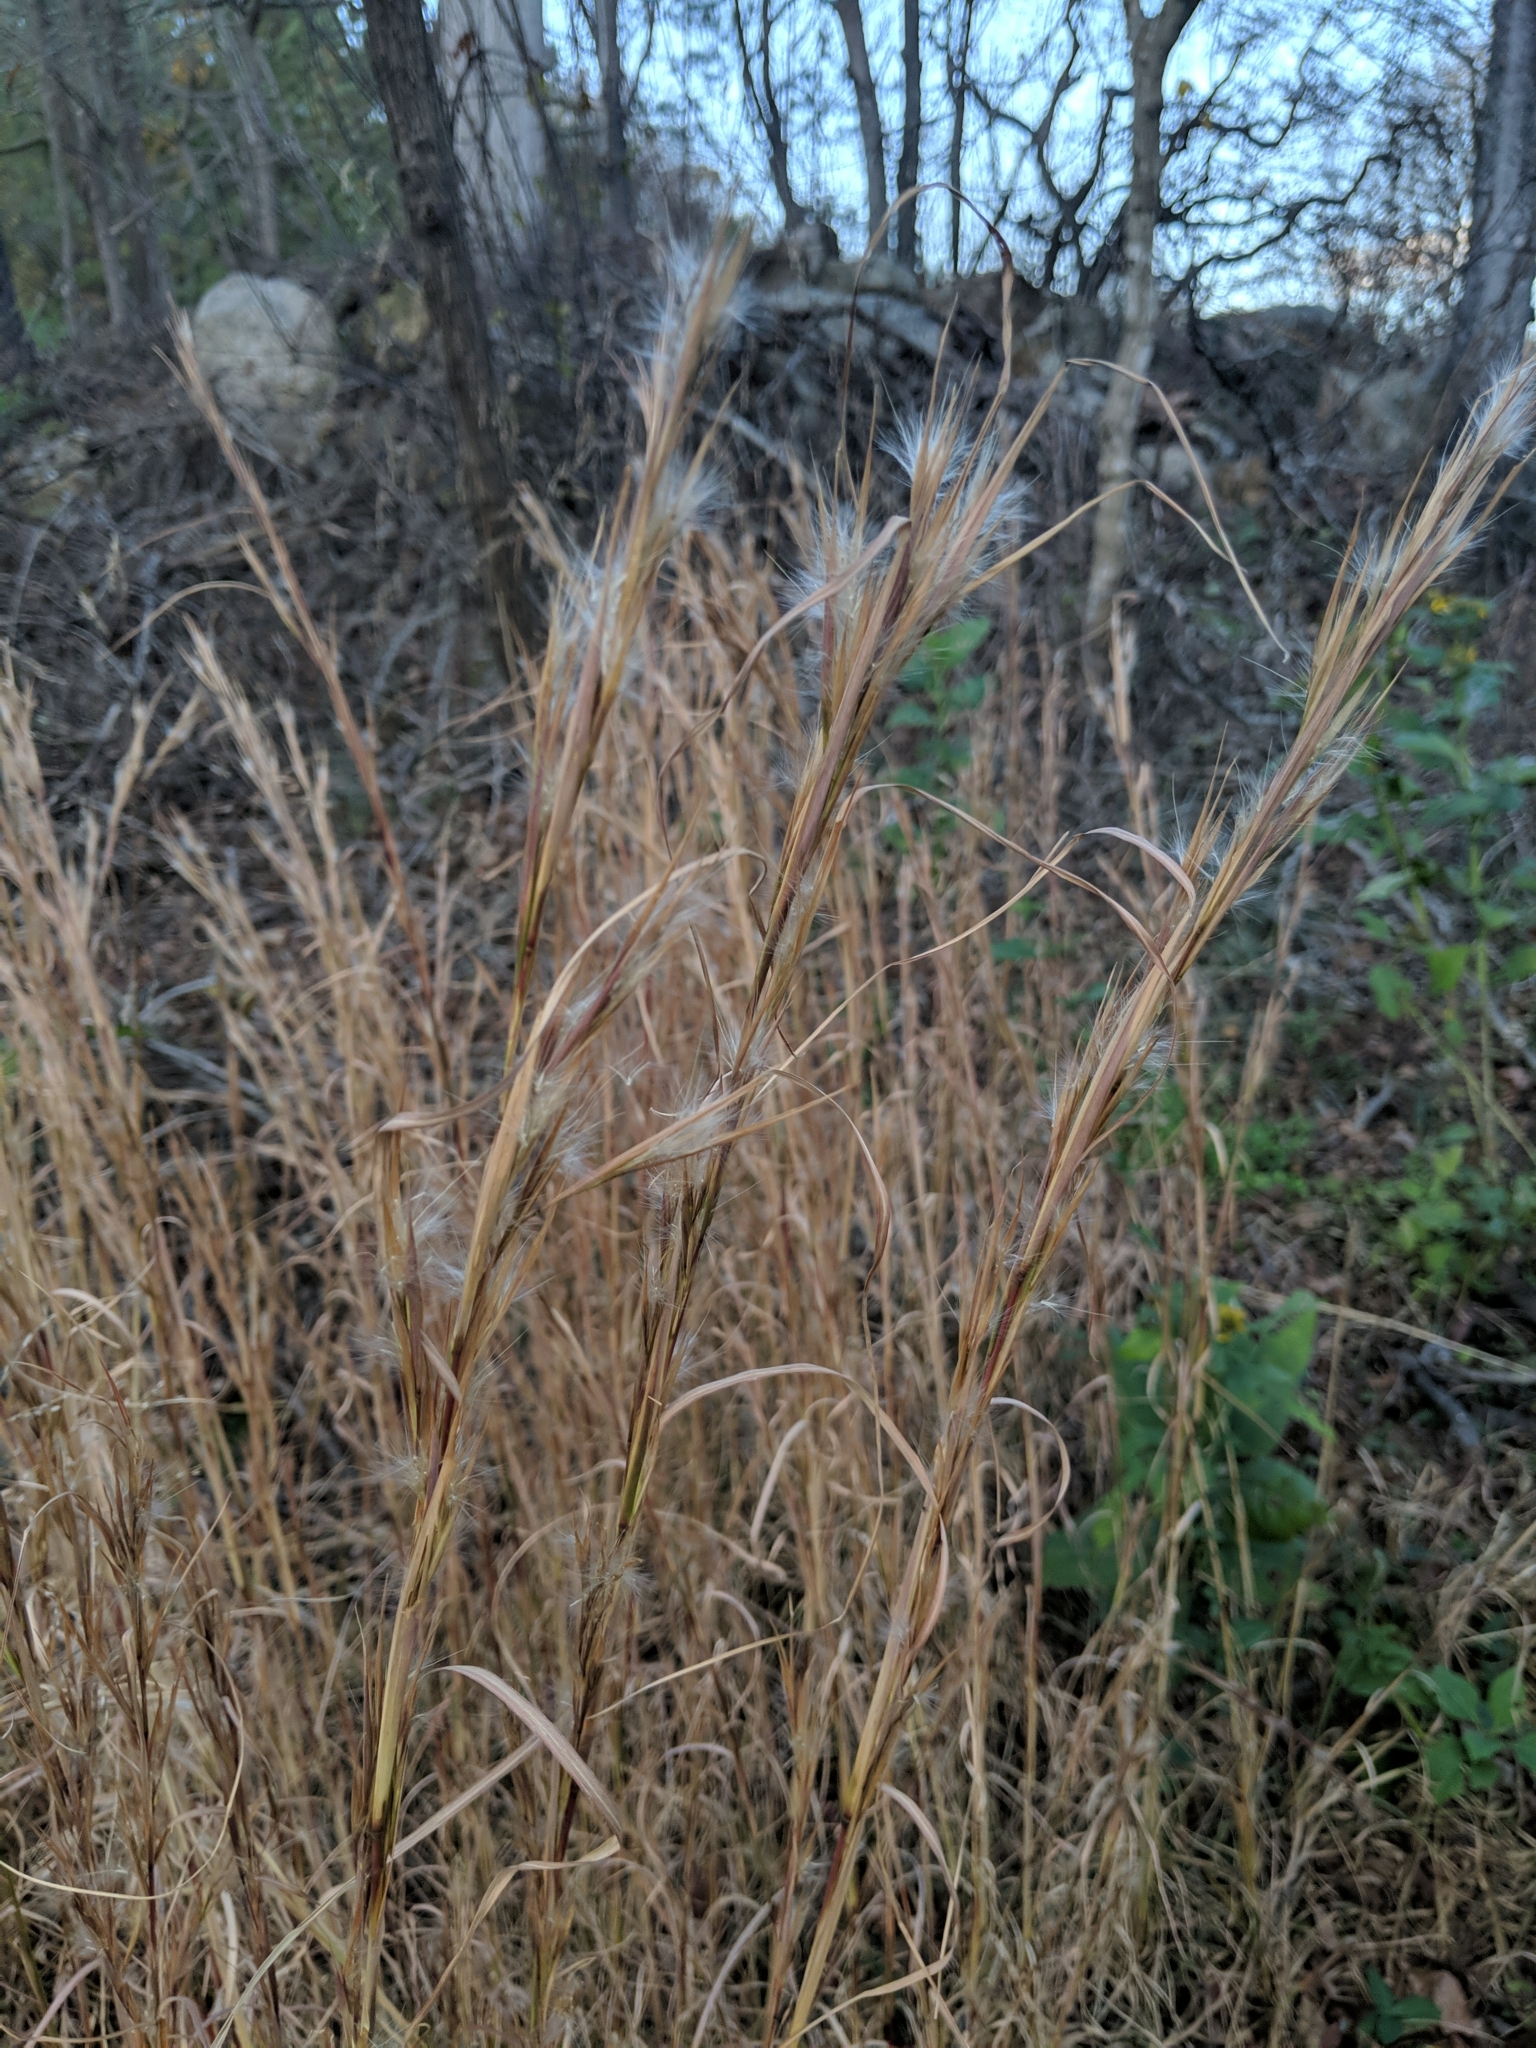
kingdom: Plantae
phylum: Tracheophyta
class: Liliopsida
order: Poales
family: Poaceae
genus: Andropogon
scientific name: Andropogon virginicus
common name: Broomsedge bluestem
